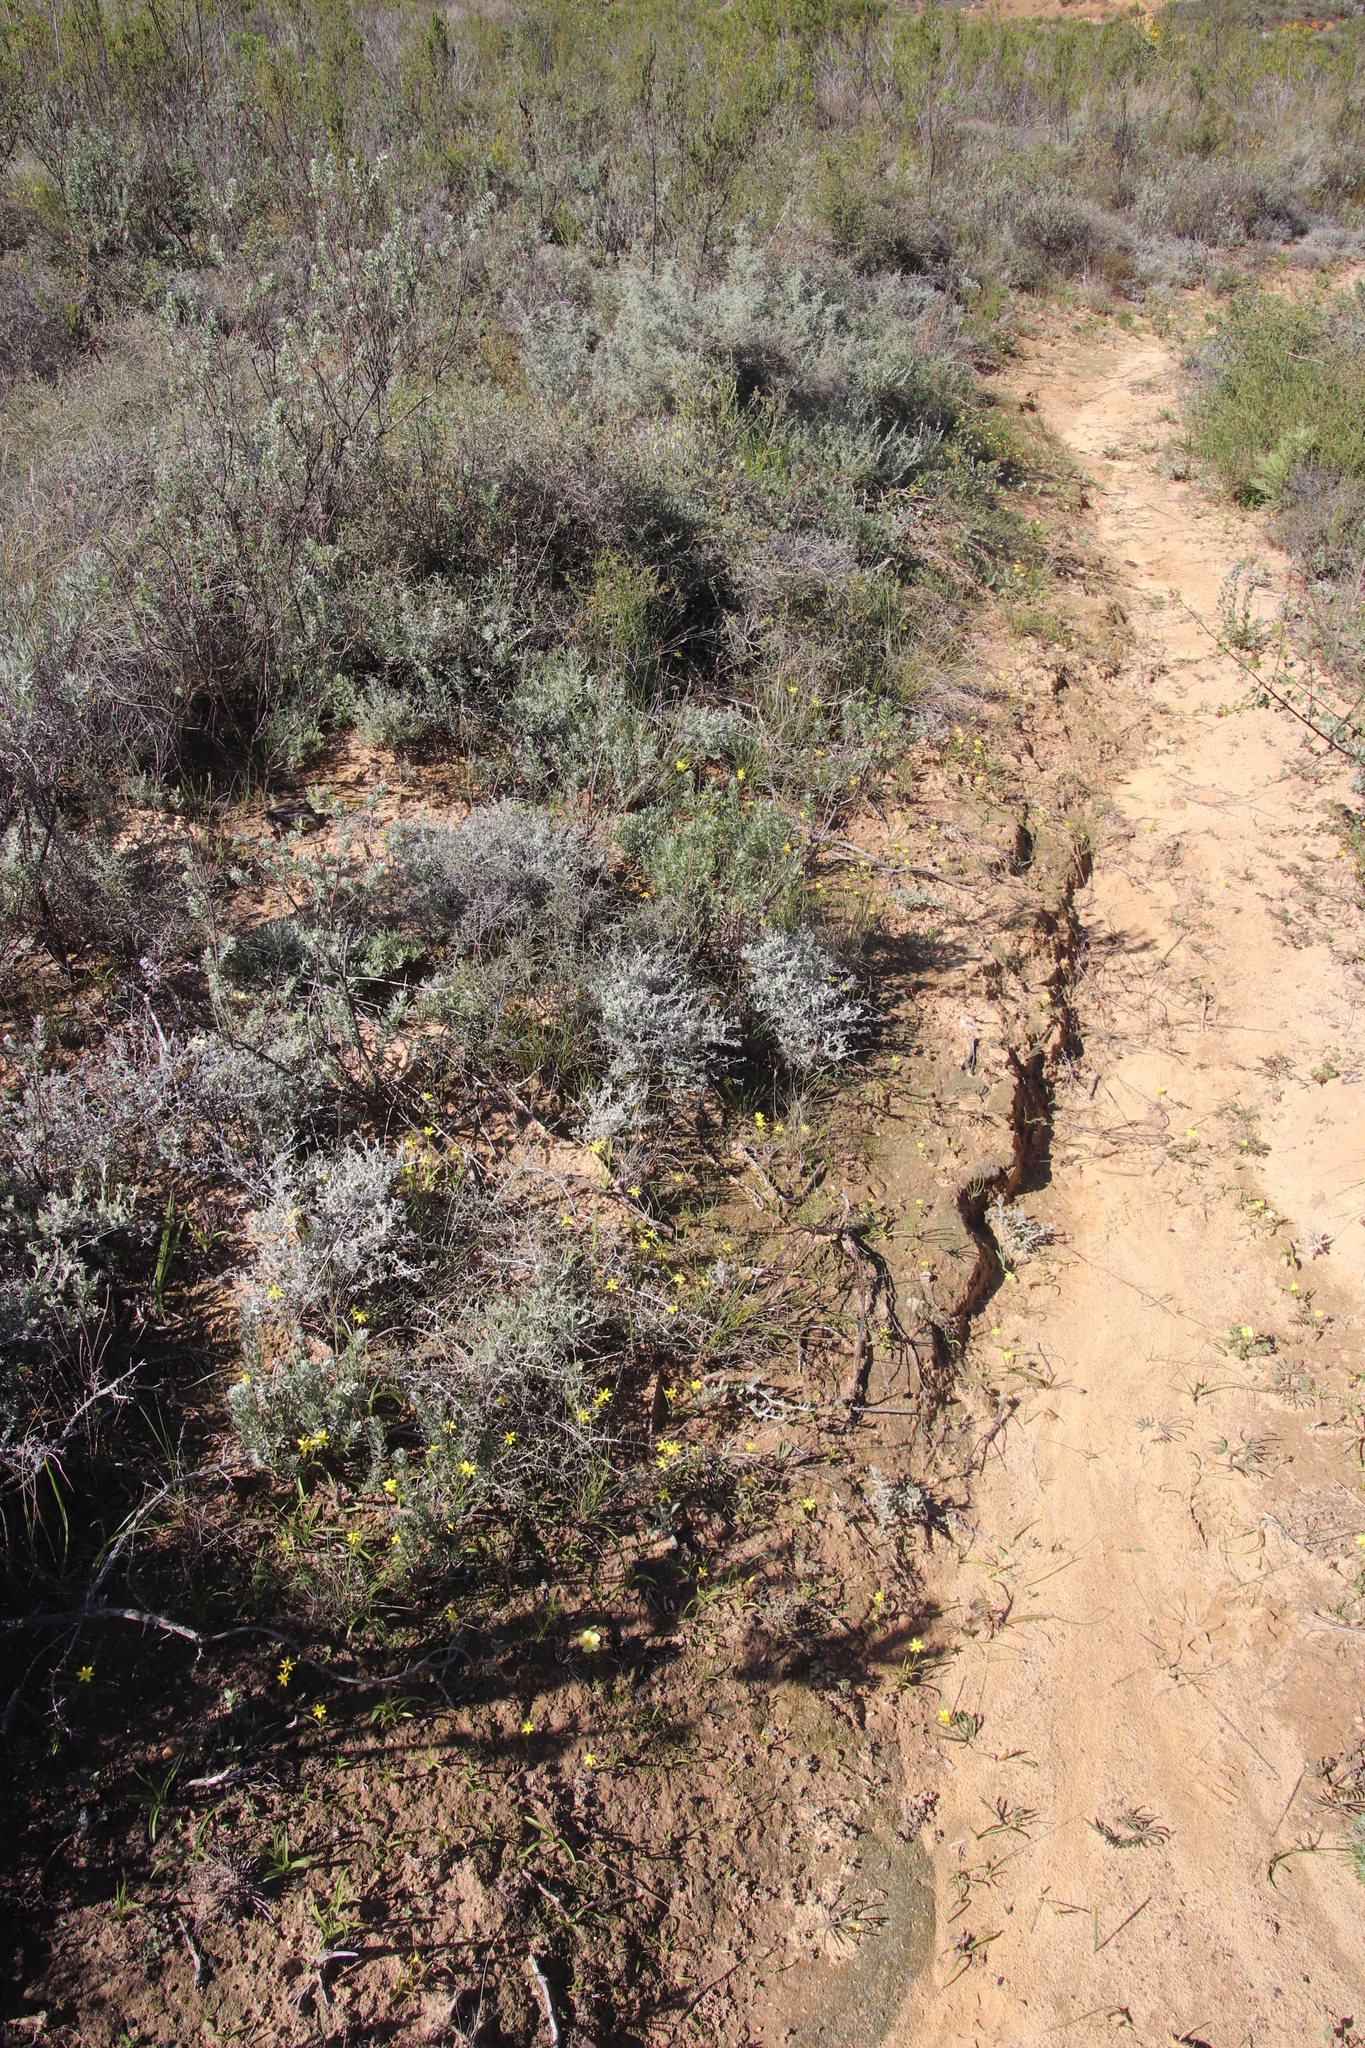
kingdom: Plantae
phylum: Tracheophyta
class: Liliopsida
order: Asparagales
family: Hypoxidaceae
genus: Pauridia
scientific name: Pauridia gracilipes
